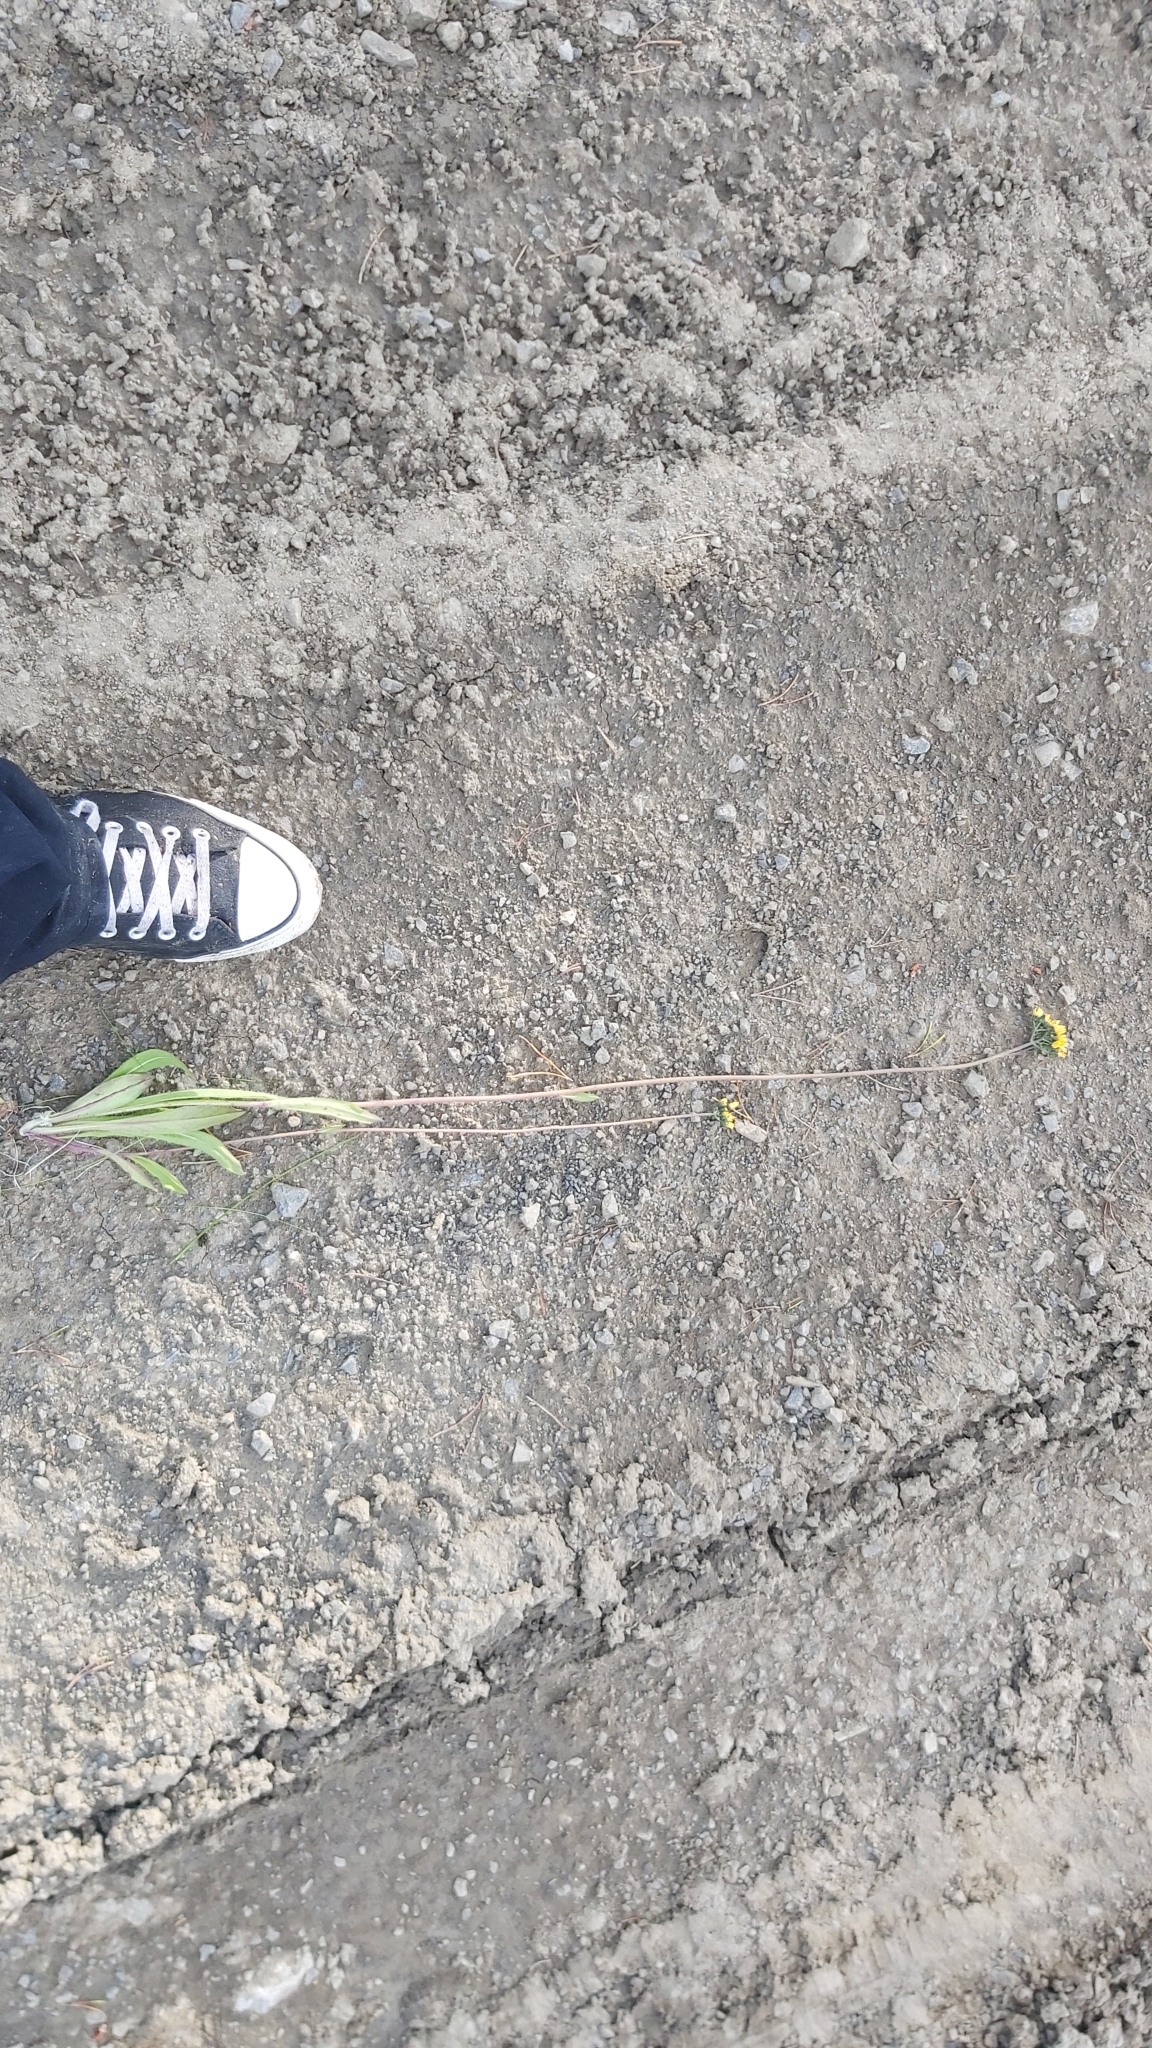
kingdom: Plantae
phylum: Tracheophyta
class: Magnoliopsida
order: Asterales
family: Asteraceae
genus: Pilosella
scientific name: Pilosella caespitosa
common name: Yellow fox-and-cubs
